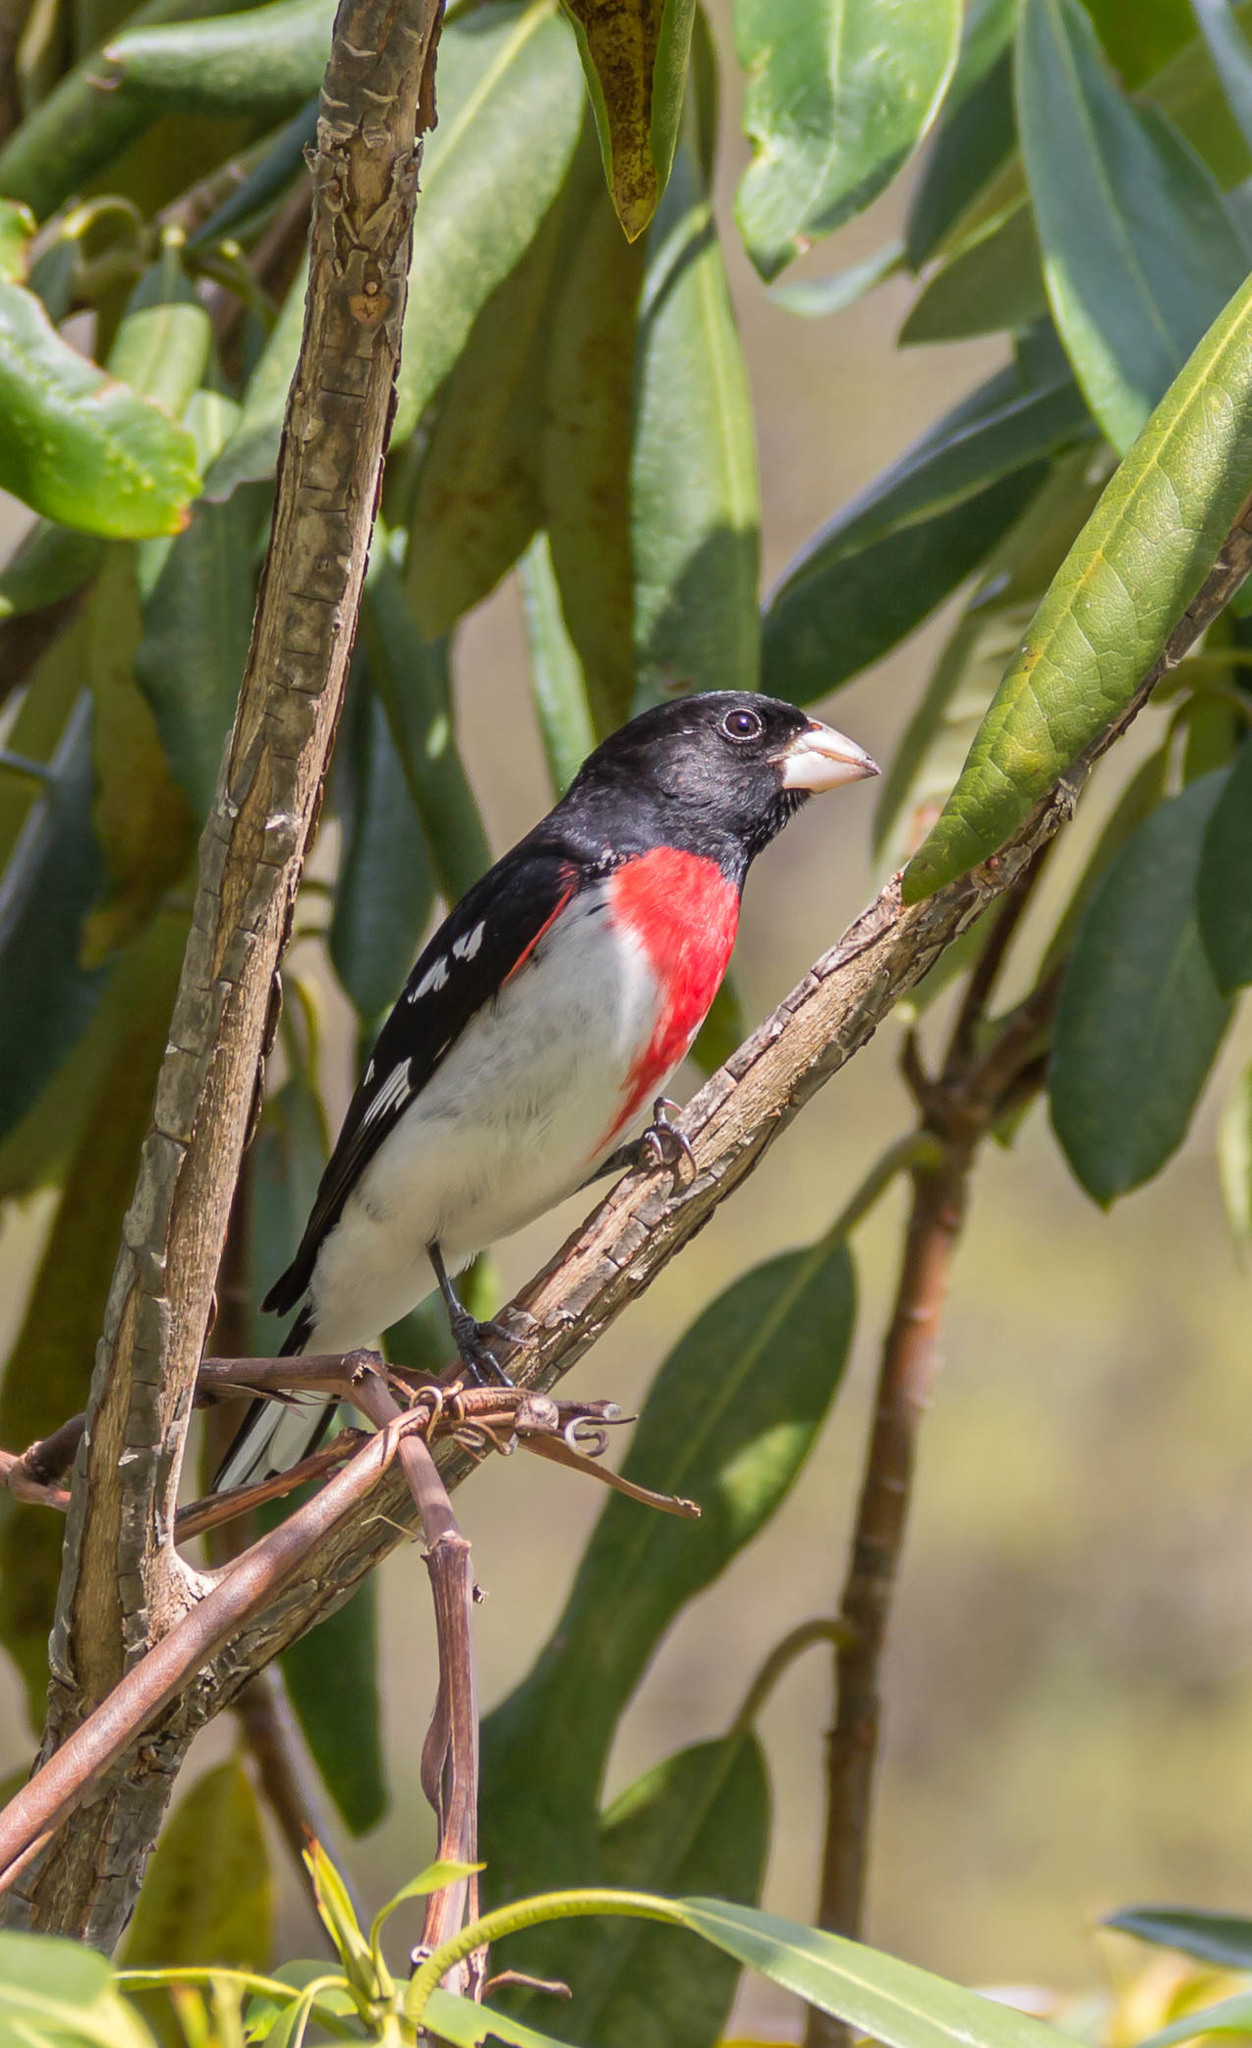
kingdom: Animalia
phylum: Chordata
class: Aves
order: Passeriformes
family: Cardinalidae
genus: Pheucticus
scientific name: Pheucticus ludovicianus
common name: Rose-breasted grosbeak
